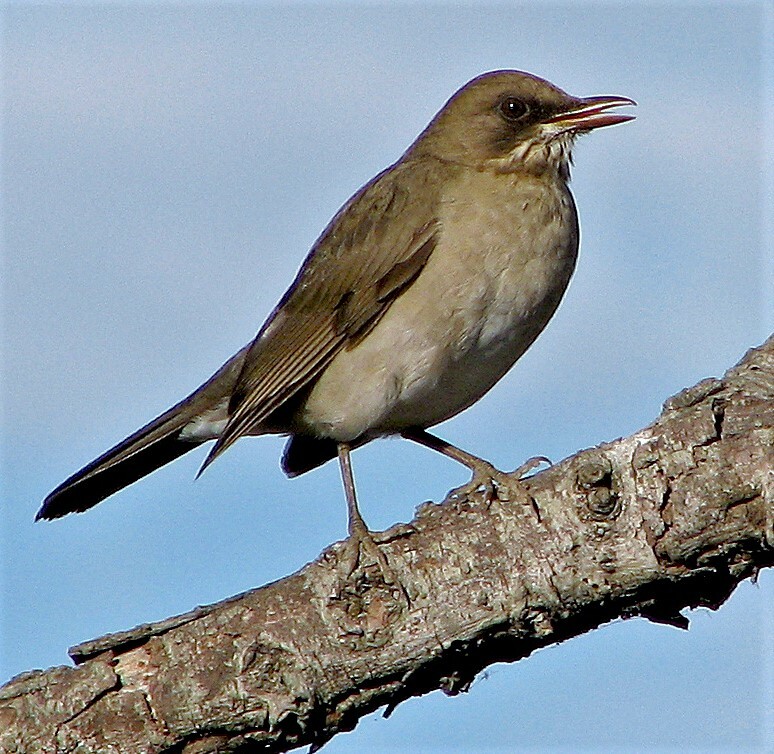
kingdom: Animalia
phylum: Chordata
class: Aves
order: Passeriformes
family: Turdidae
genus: Turdus
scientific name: Turdus amaurochalinus
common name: Creamy-bellied thrush
